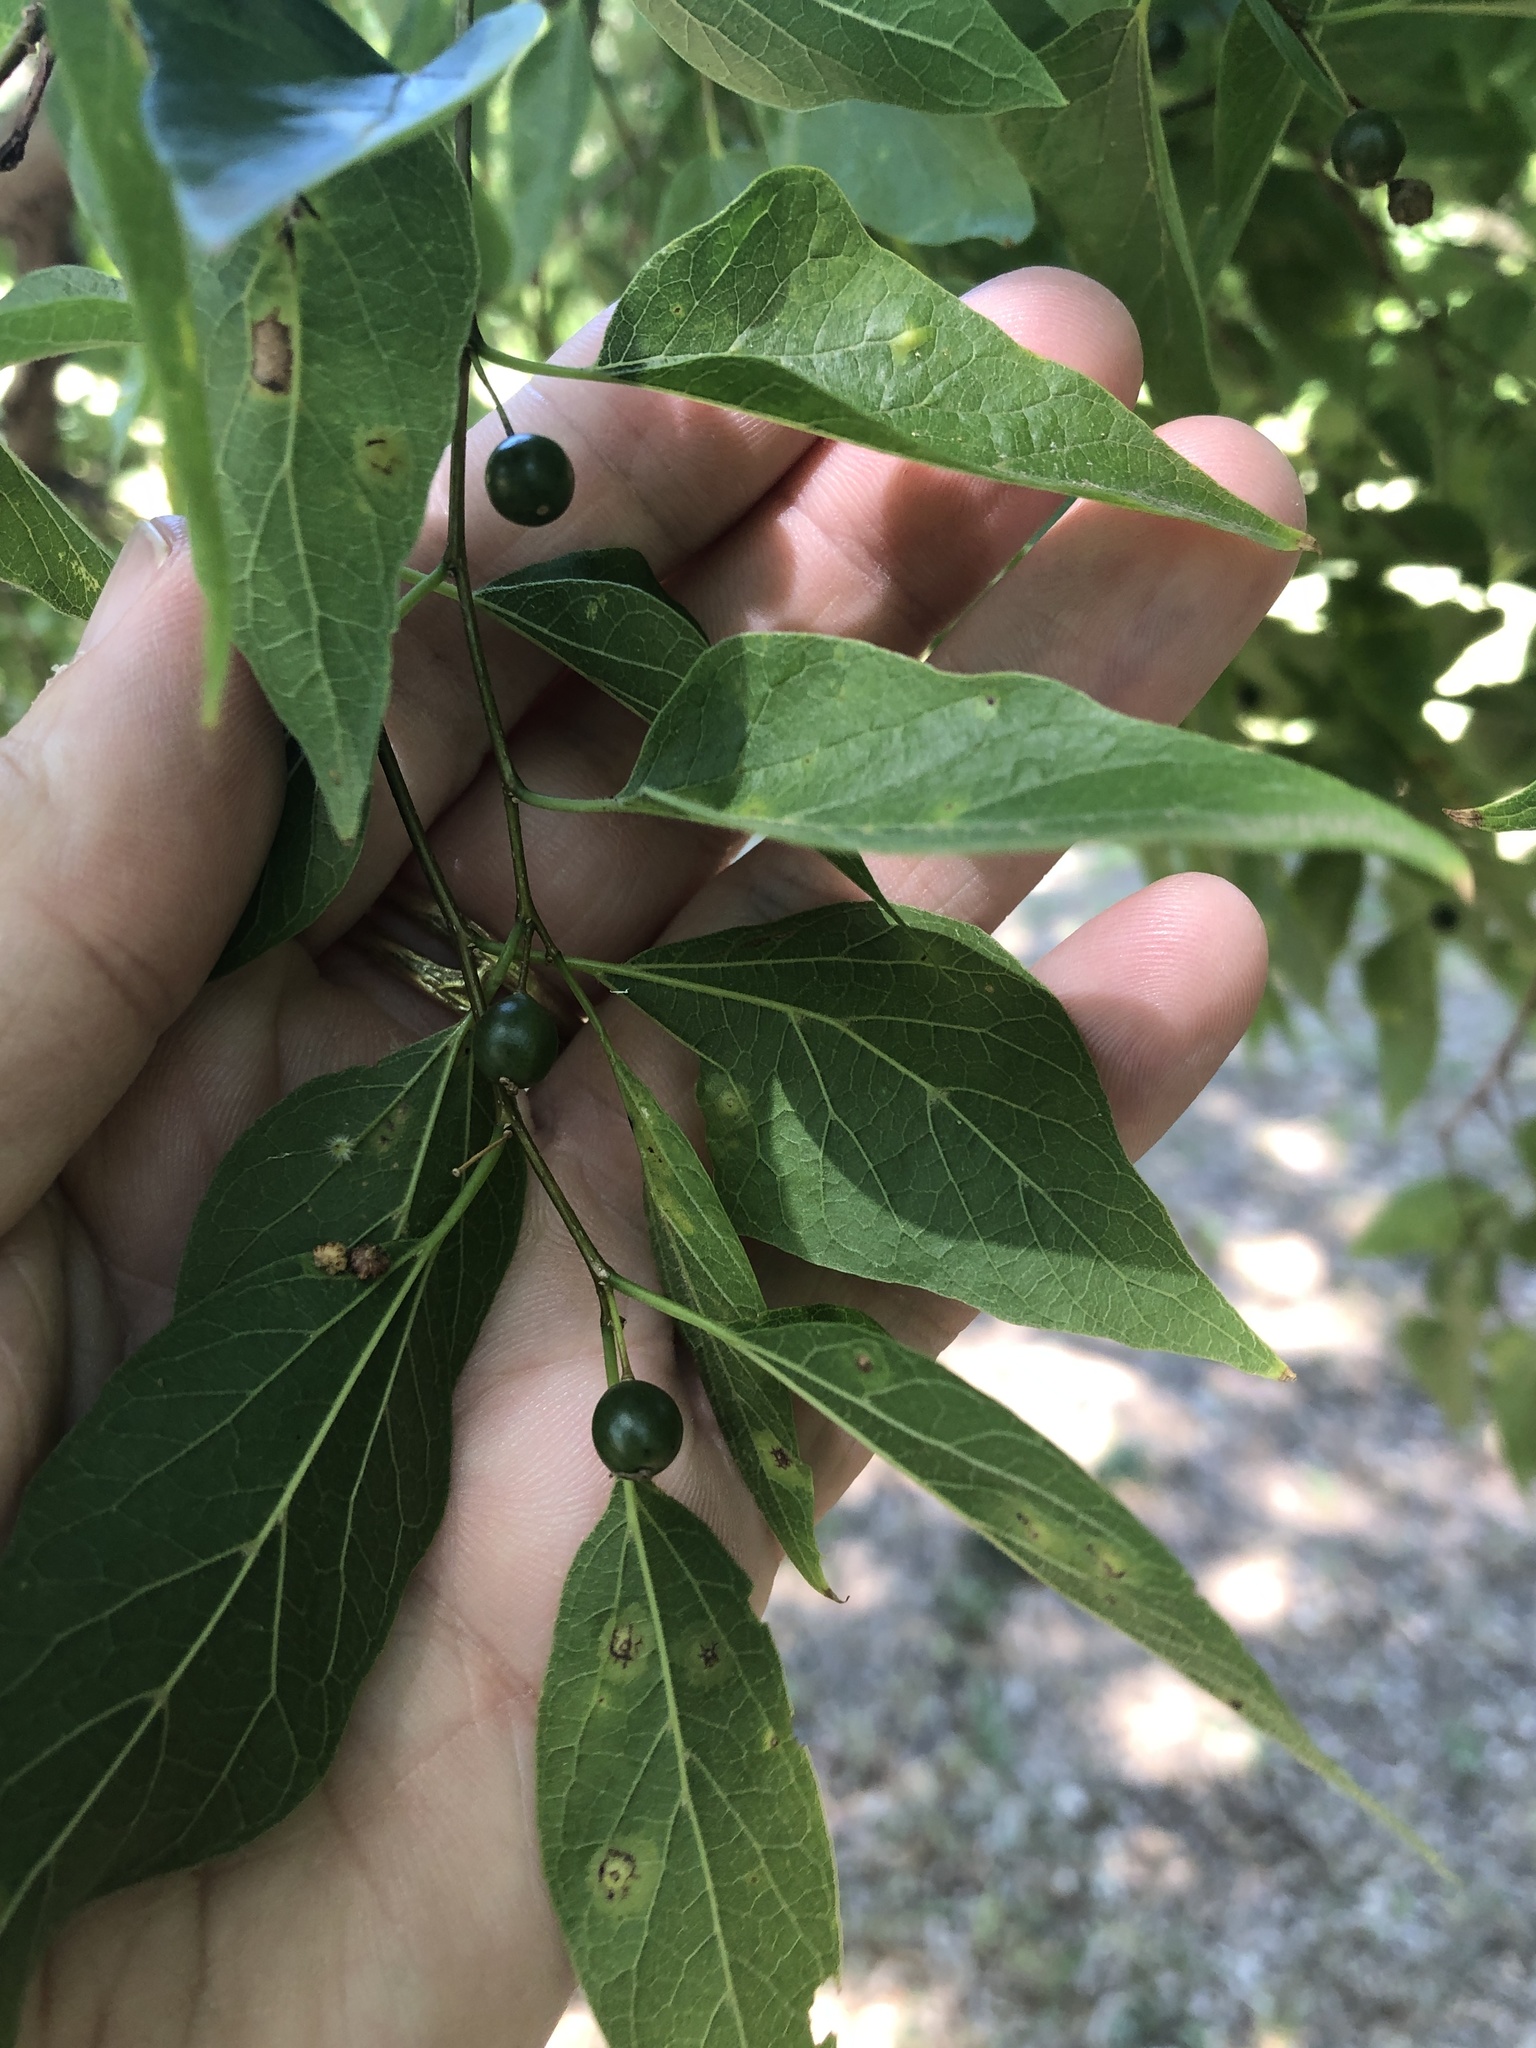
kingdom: Plantae
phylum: Tracheophyta
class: Magnoliopsida
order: Rosales
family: Cannabaceae
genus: Celtis
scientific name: Celtis laevigata
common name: Sugarberry
